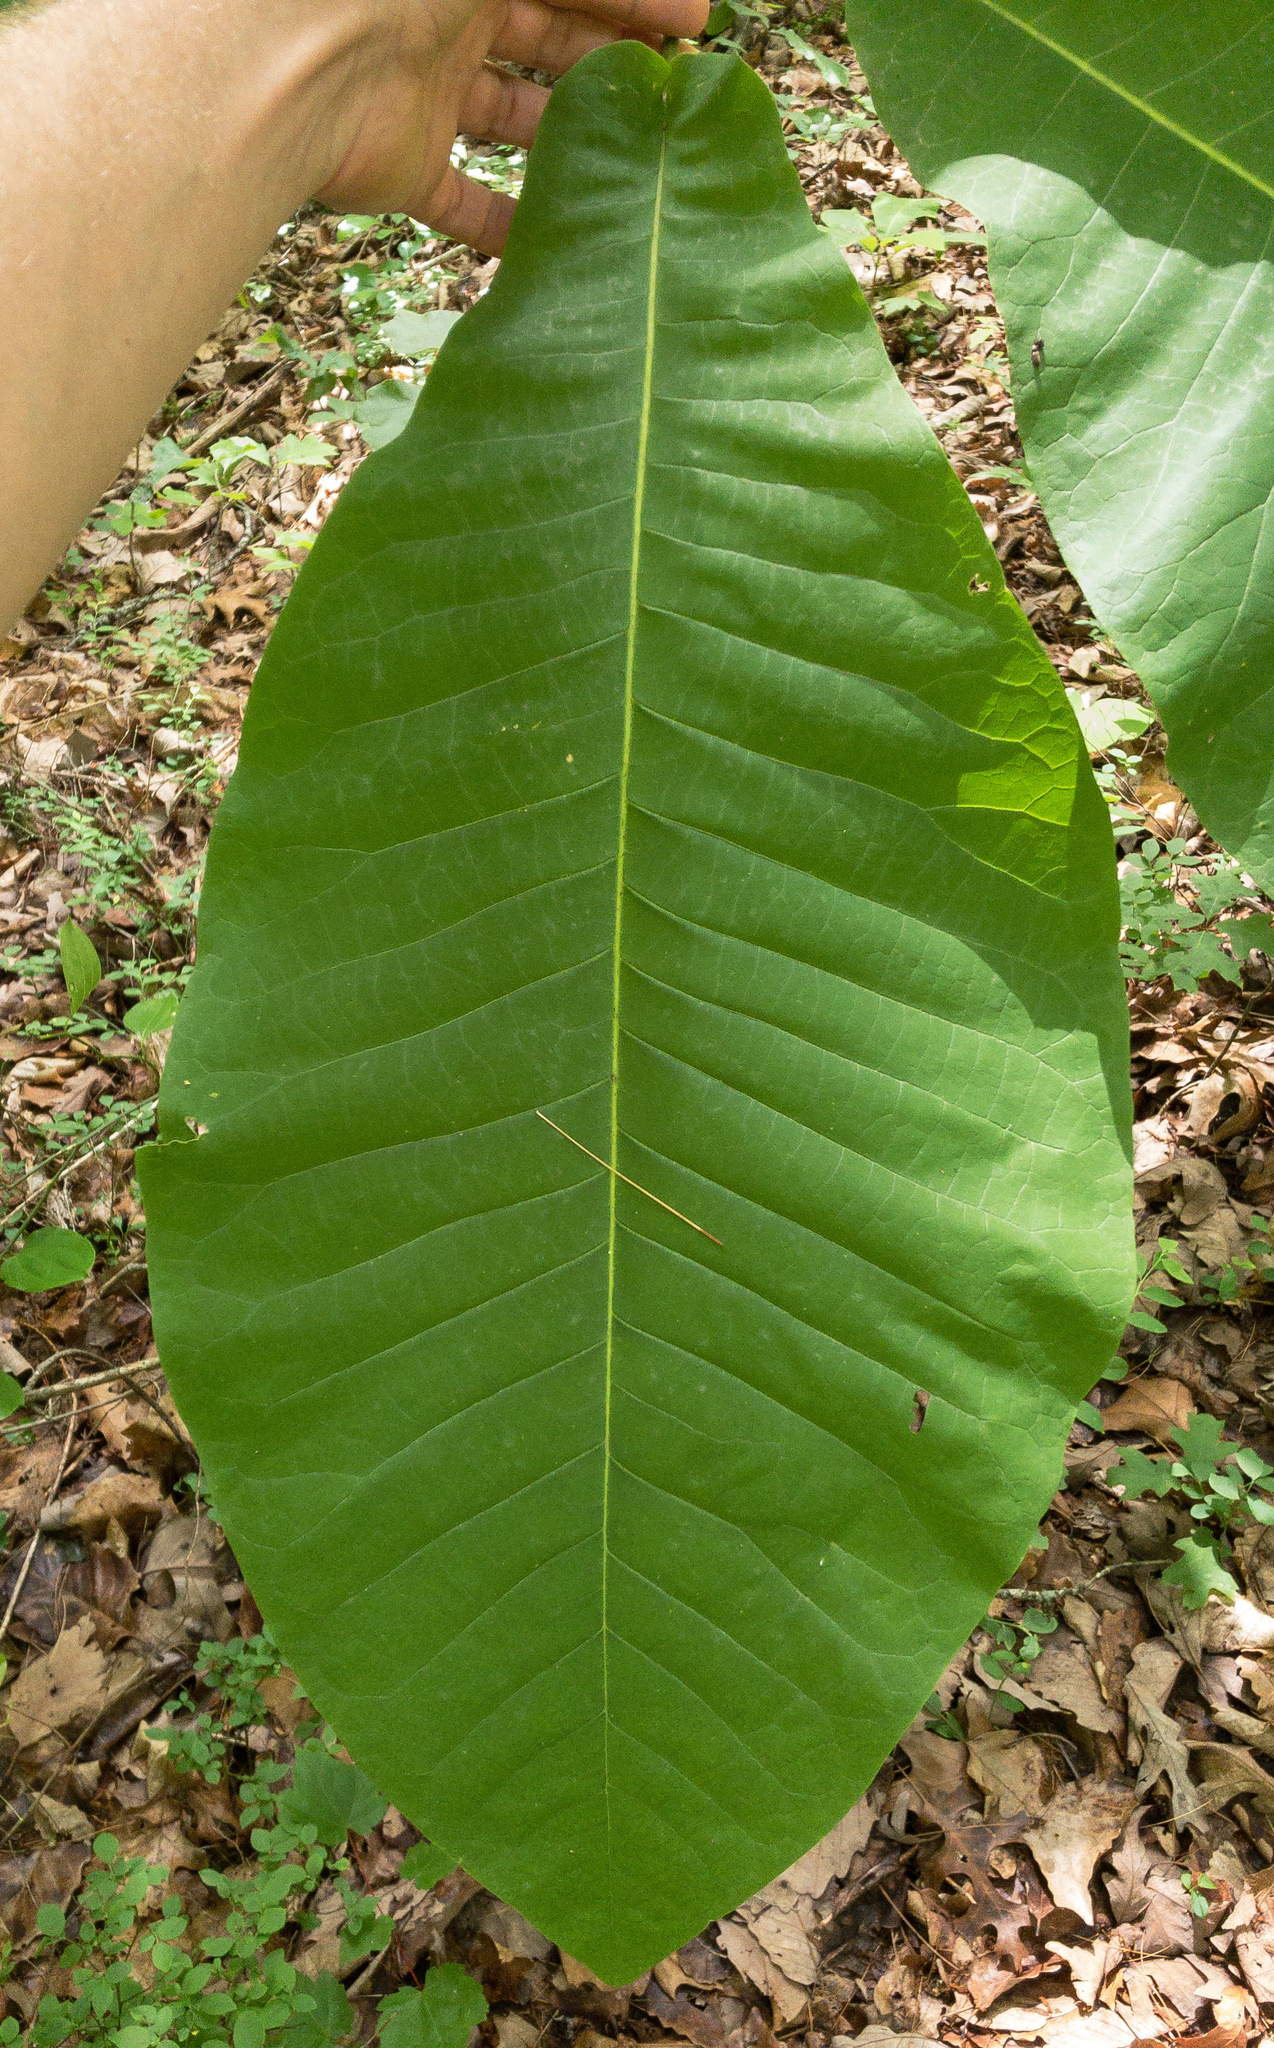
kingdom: Plantae
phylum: Tracheophyta
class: Magnoliopsida
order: Magnoliales
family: Magnoliaceae
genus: Magnolia
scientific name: Magnolia macrophylla
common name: Big-leaf magnolia
